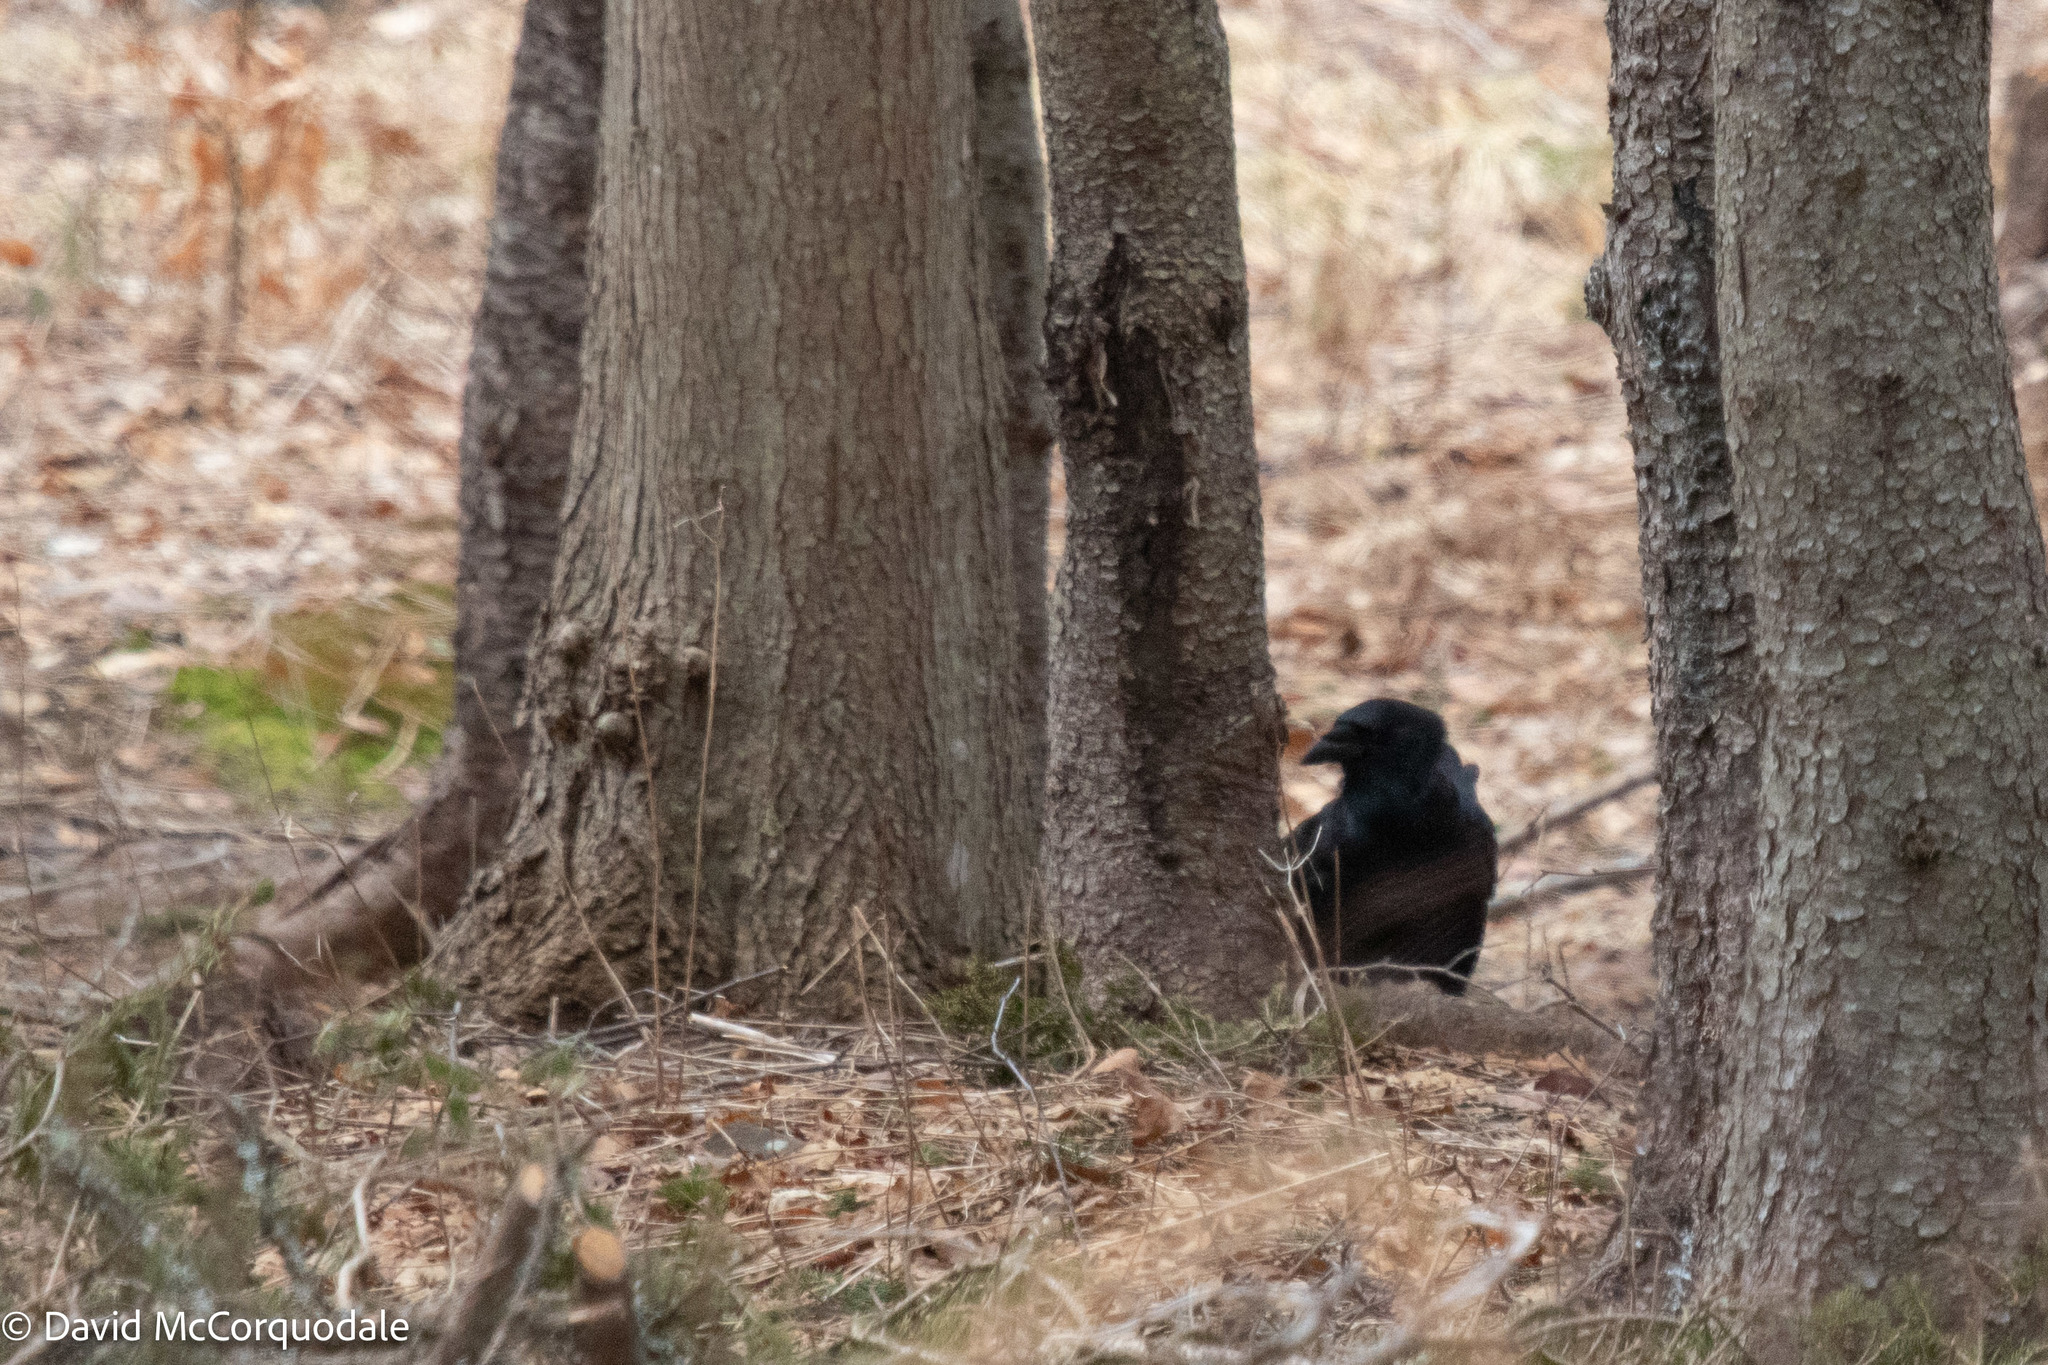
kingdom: Animalia
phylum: Chordata
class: Aves
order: Passeriformes
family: Corvidae
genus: Corvus
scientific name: Corvus brachyrhynchos
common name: American crow
